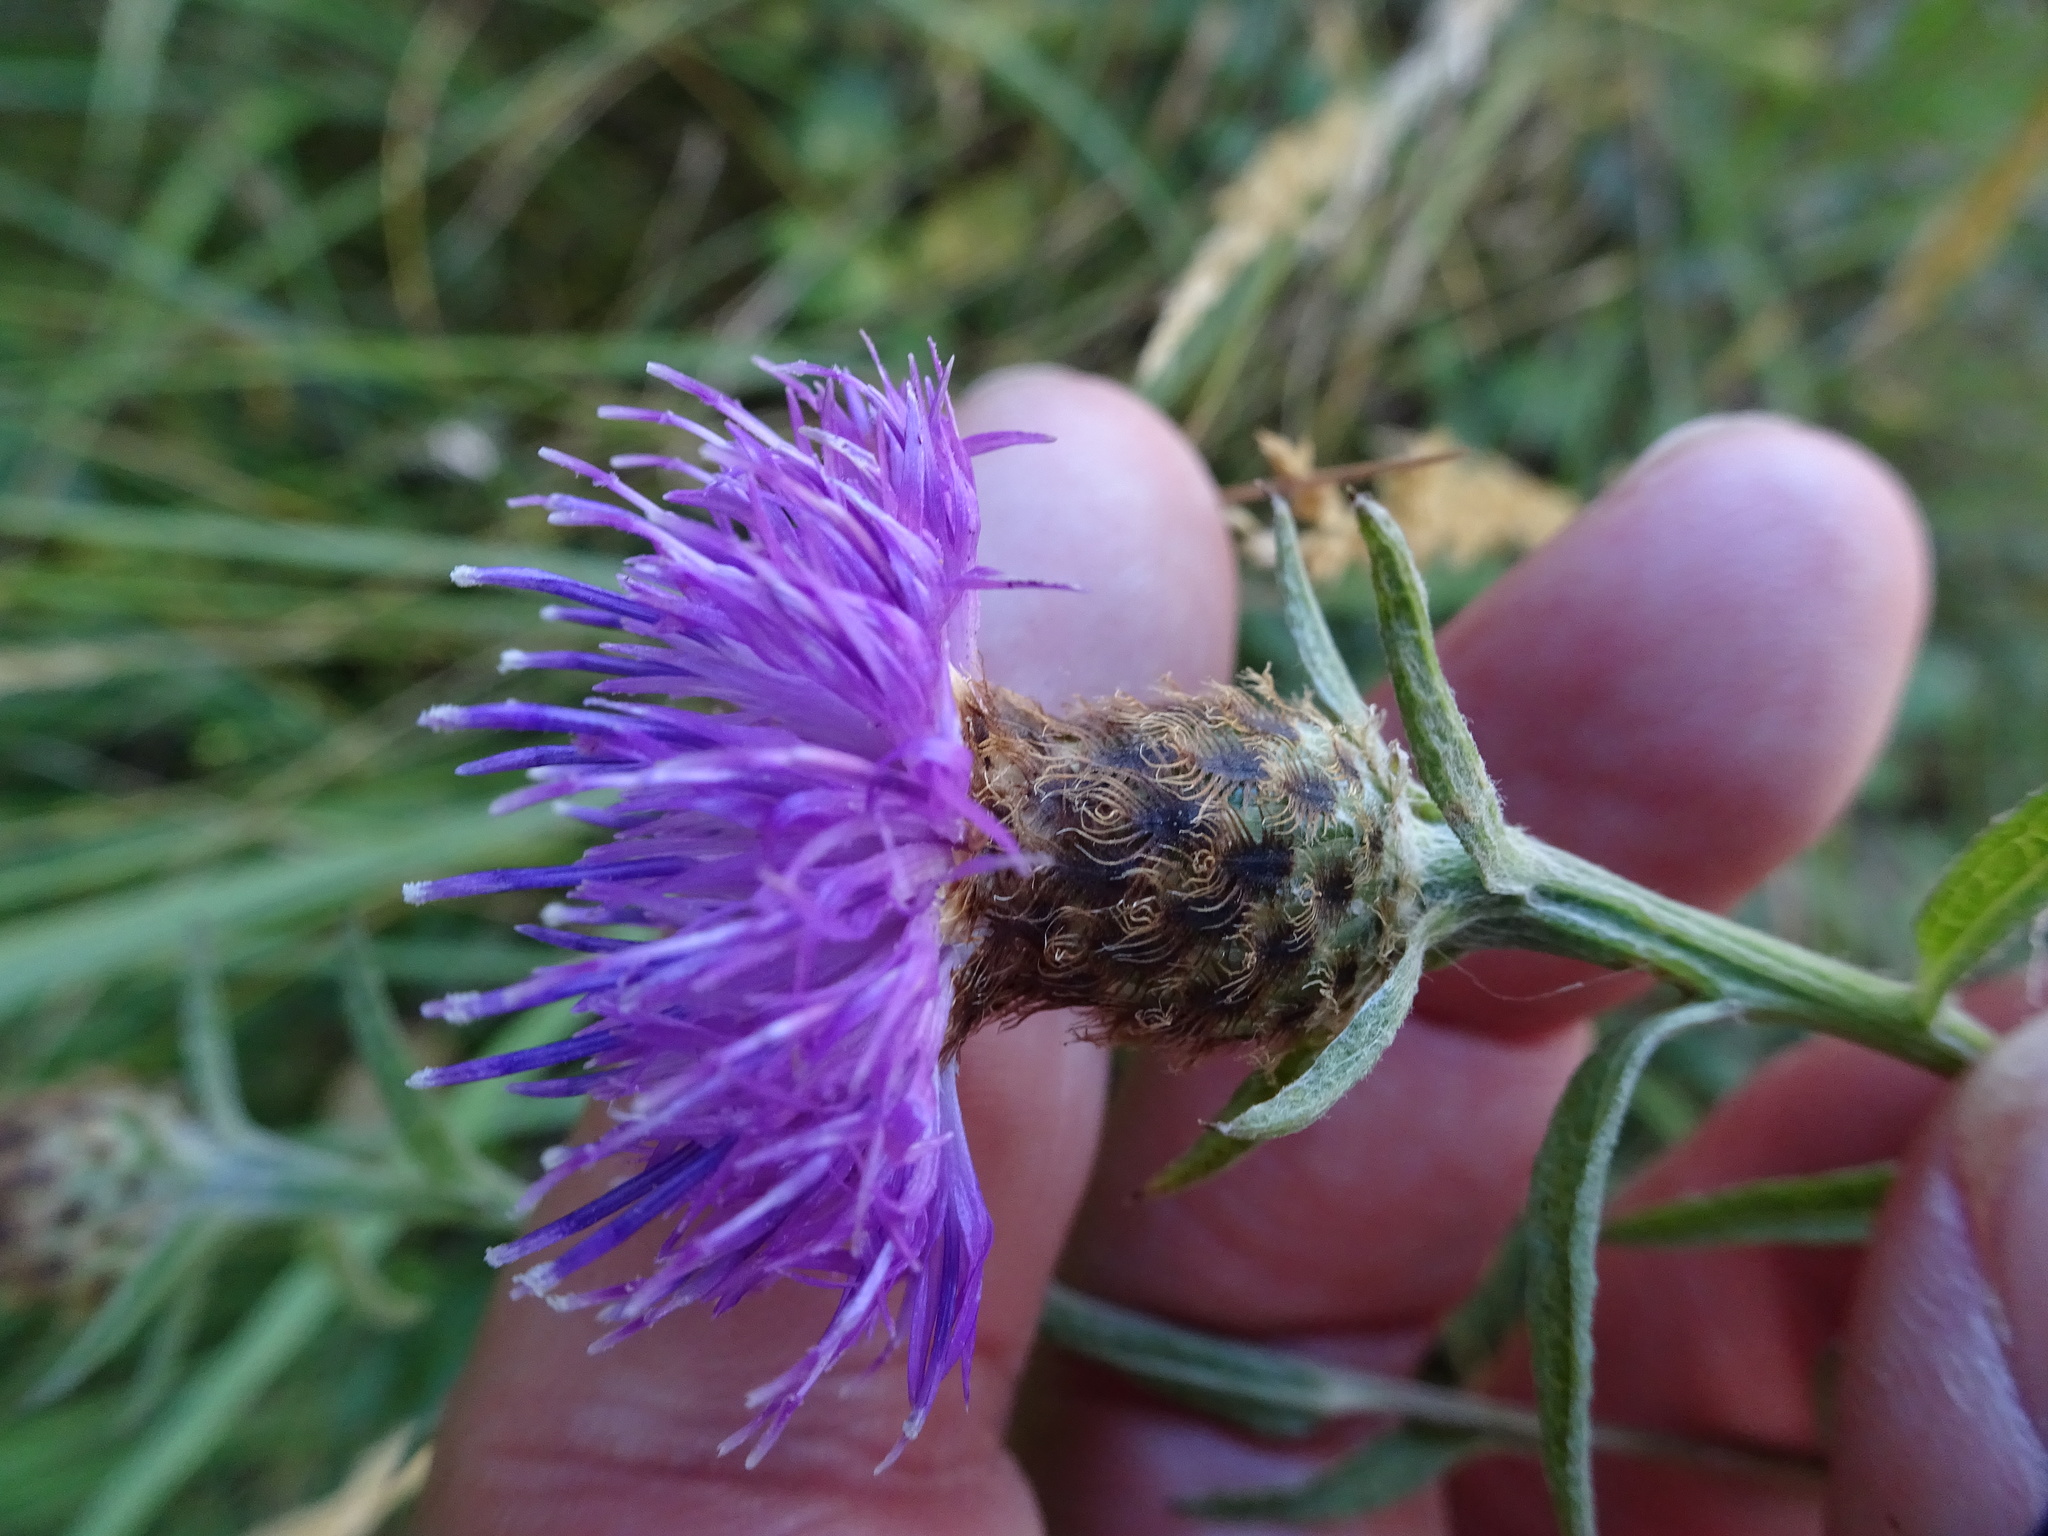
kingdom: Plantae
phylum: Tracheophyta
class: Magnoliopsida
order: Asterales
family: Asteraceae
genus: Centaurea
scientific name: Centaurea nigra
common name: Lesser knapweed
